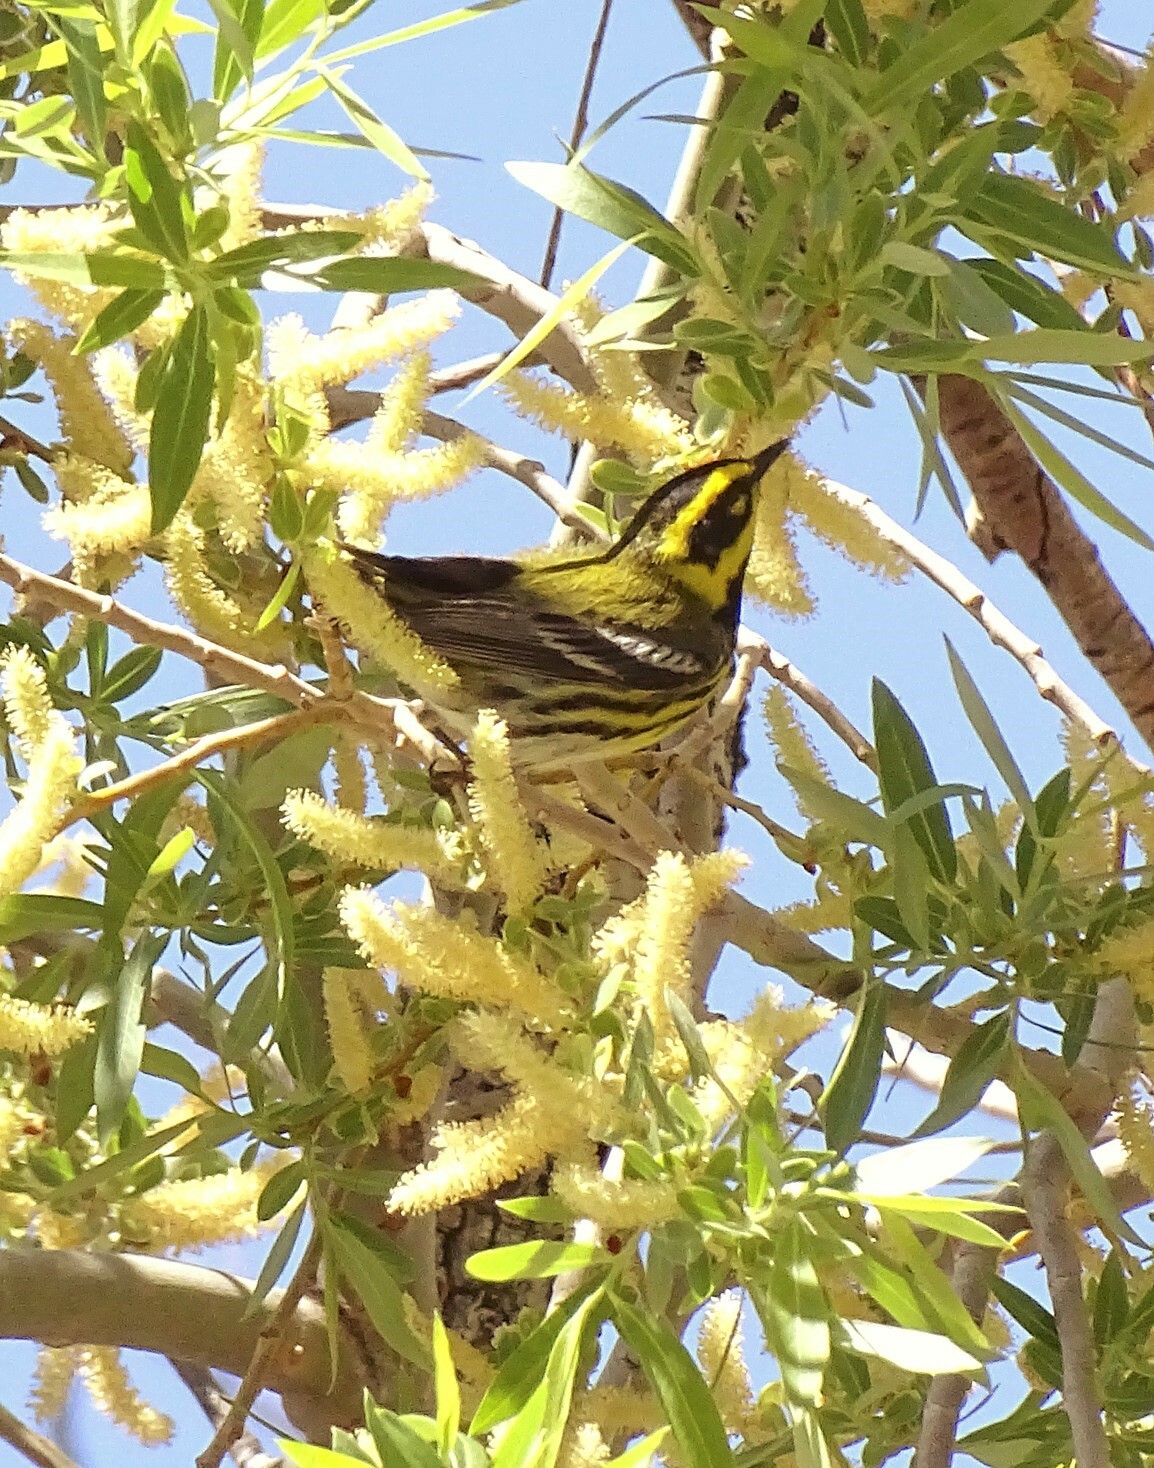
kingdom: Animalia
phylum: Chordata
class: Aves
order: Passeriformes
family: Parulidae
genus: Setophaga
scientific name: Setophaga townsendi
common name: Townsend's warbler
